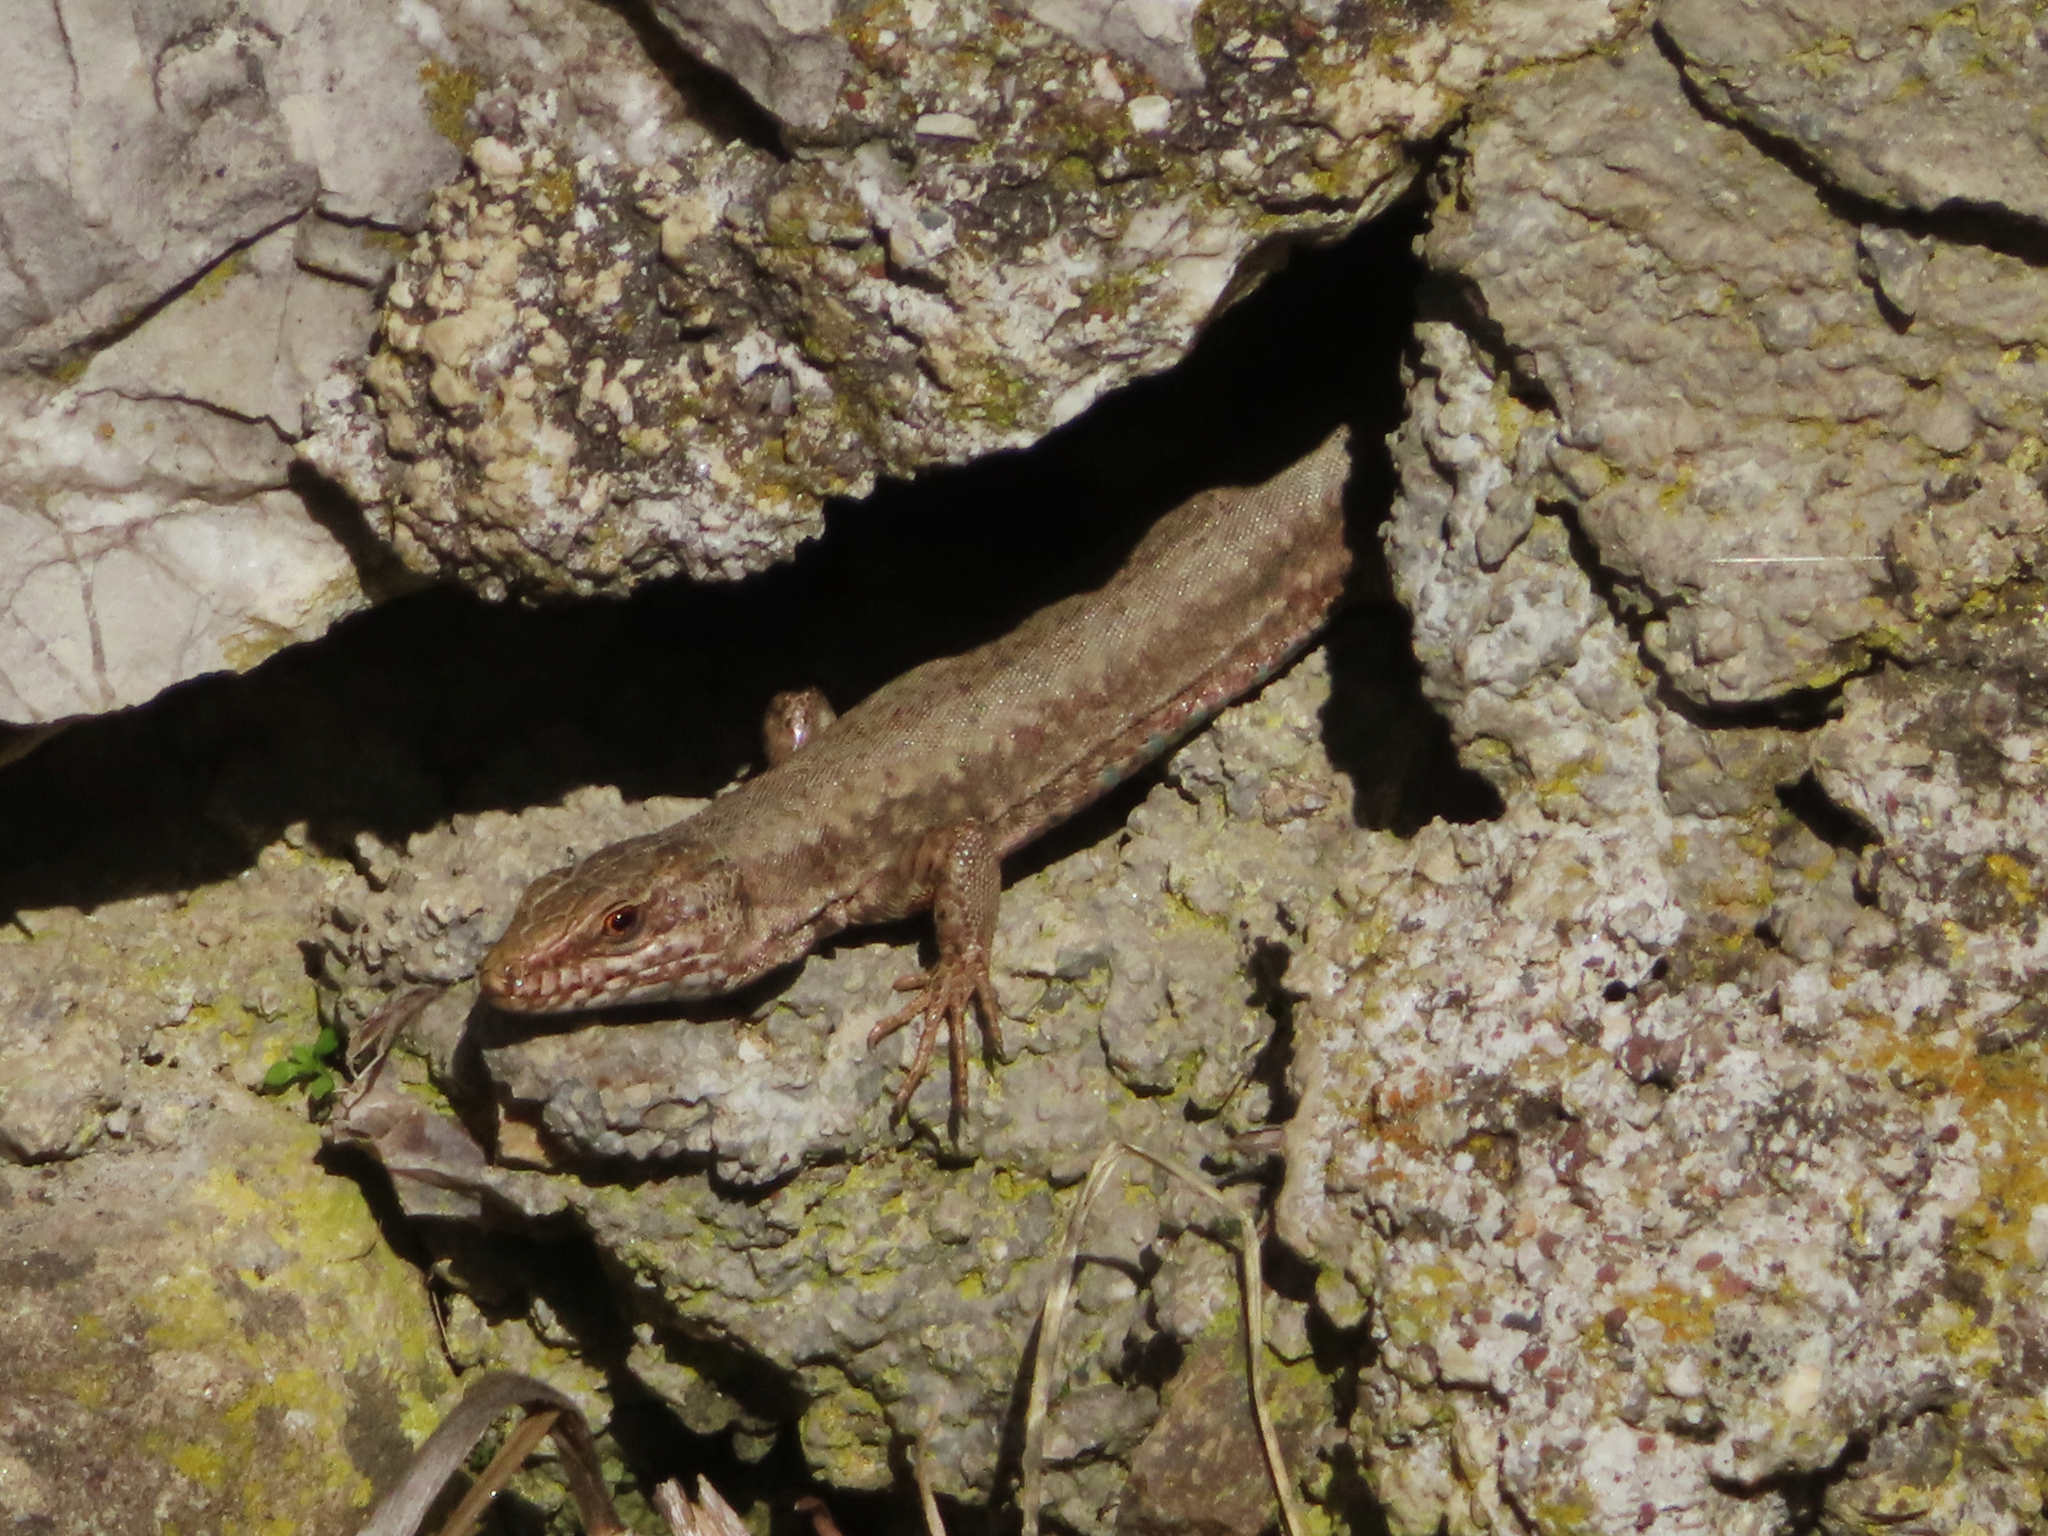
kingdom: Animalia
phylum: Chordata
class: Squamata
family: Lacertidae
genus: Podarcis
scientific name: Podarcis muralis
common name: Common wall lizard
